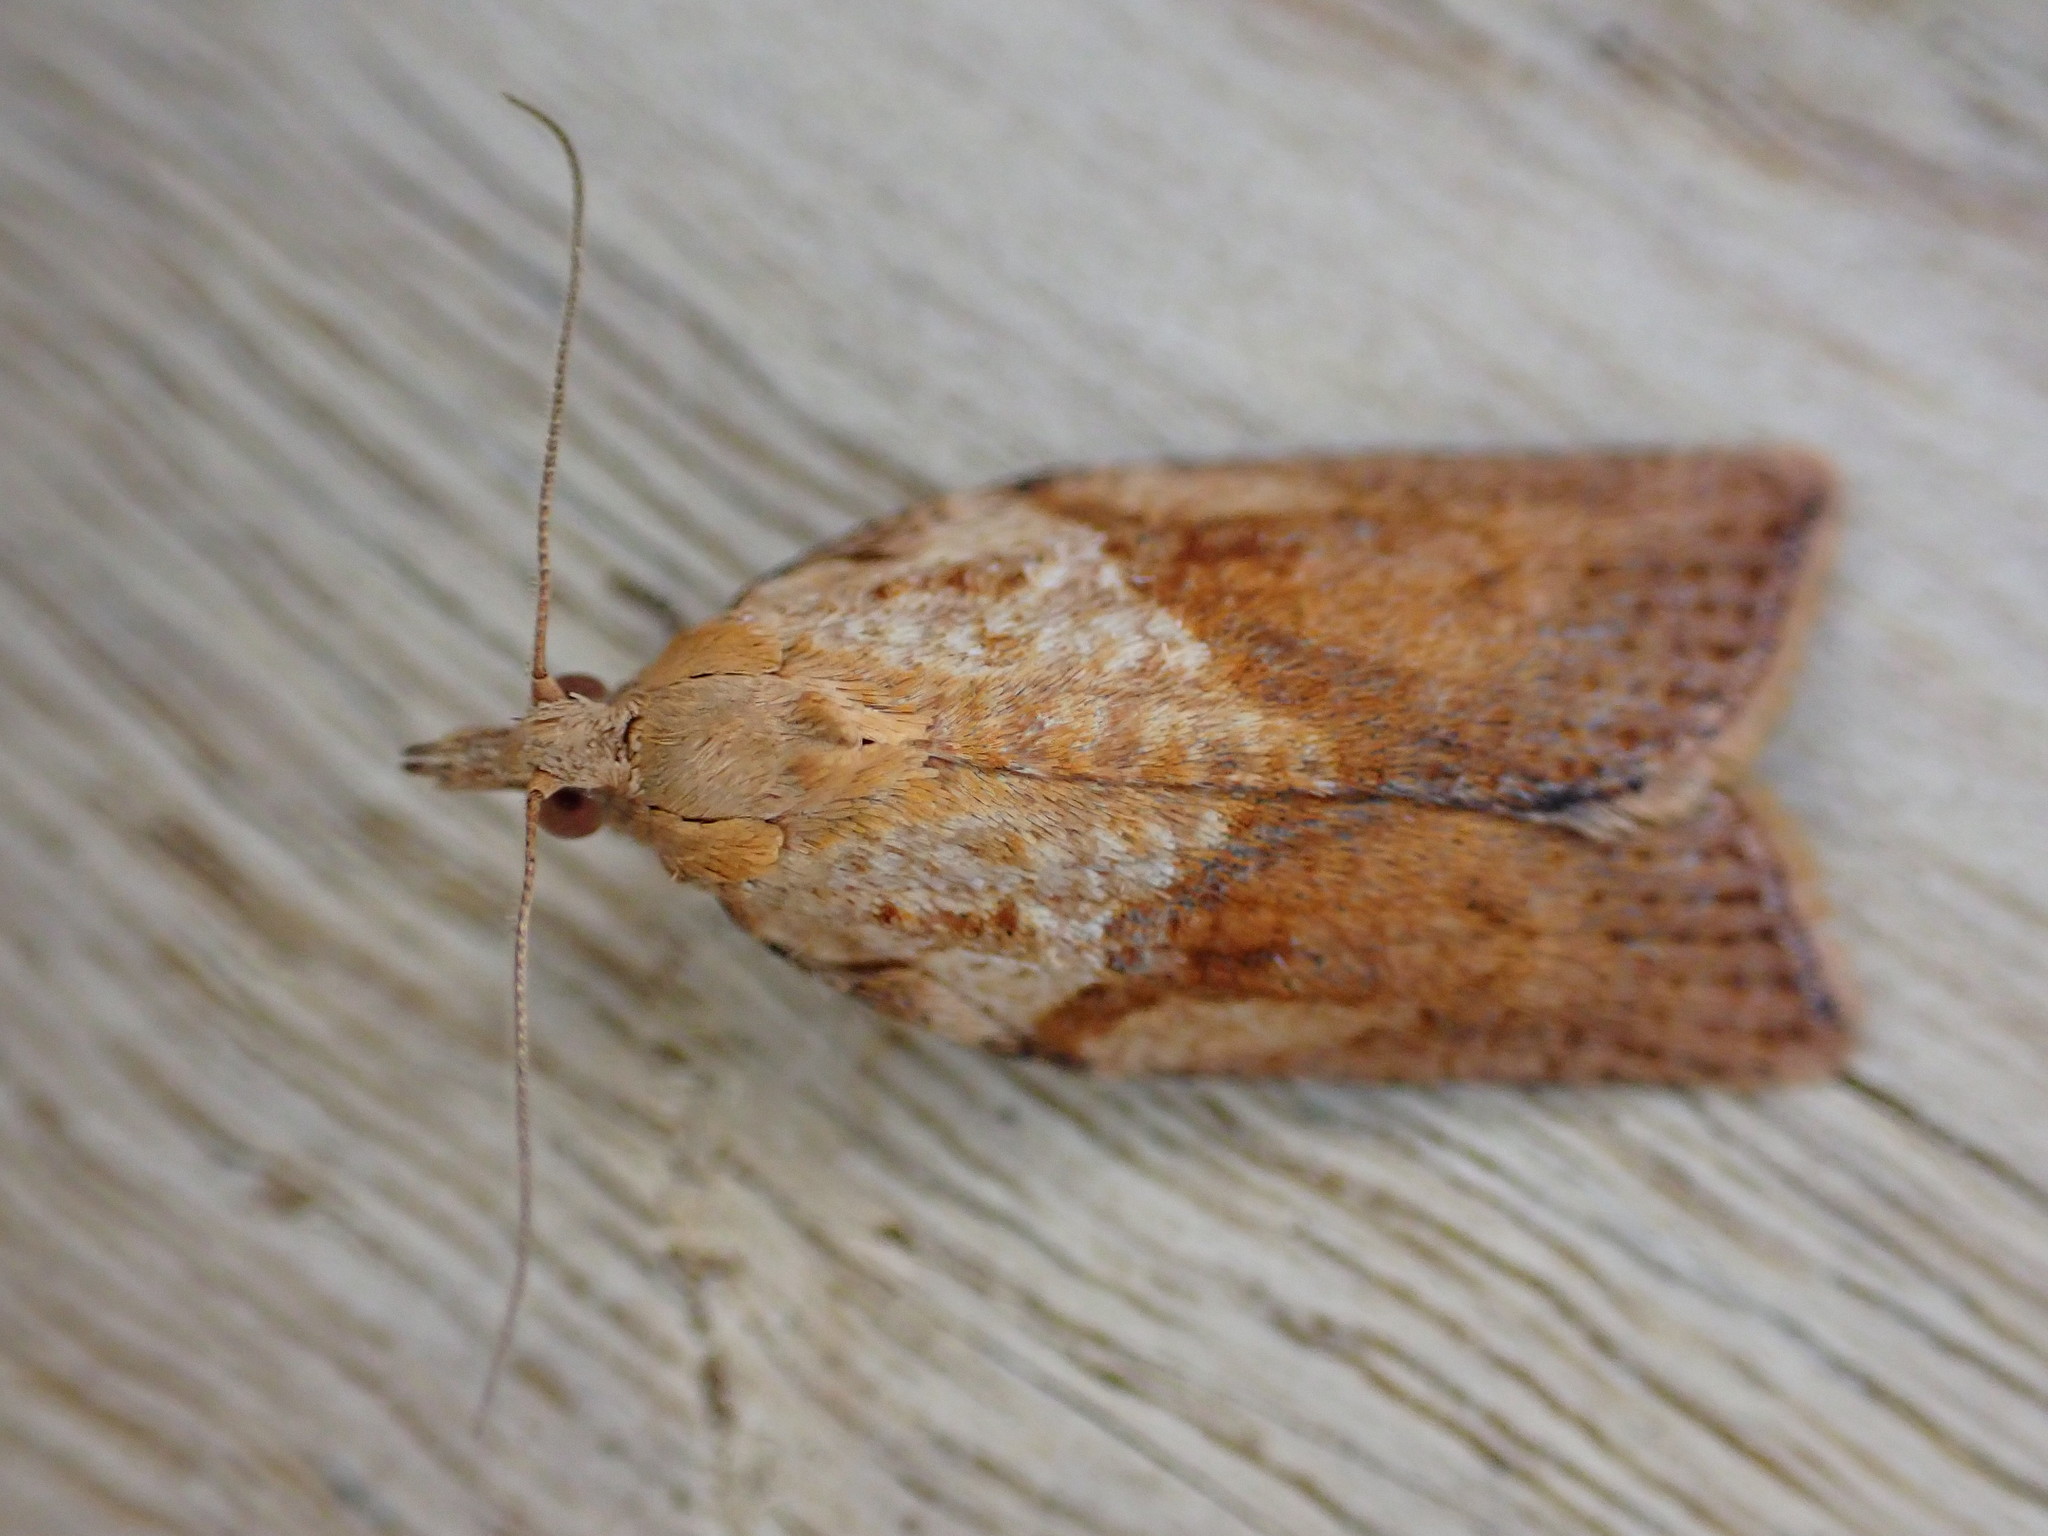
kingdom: Animalia
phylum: Arthropoda
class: Insecta
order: Lepidoptera
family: Tortricidae
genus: Epiphyas
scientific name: Epiphyas postvittana
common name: Light brown apple moth
